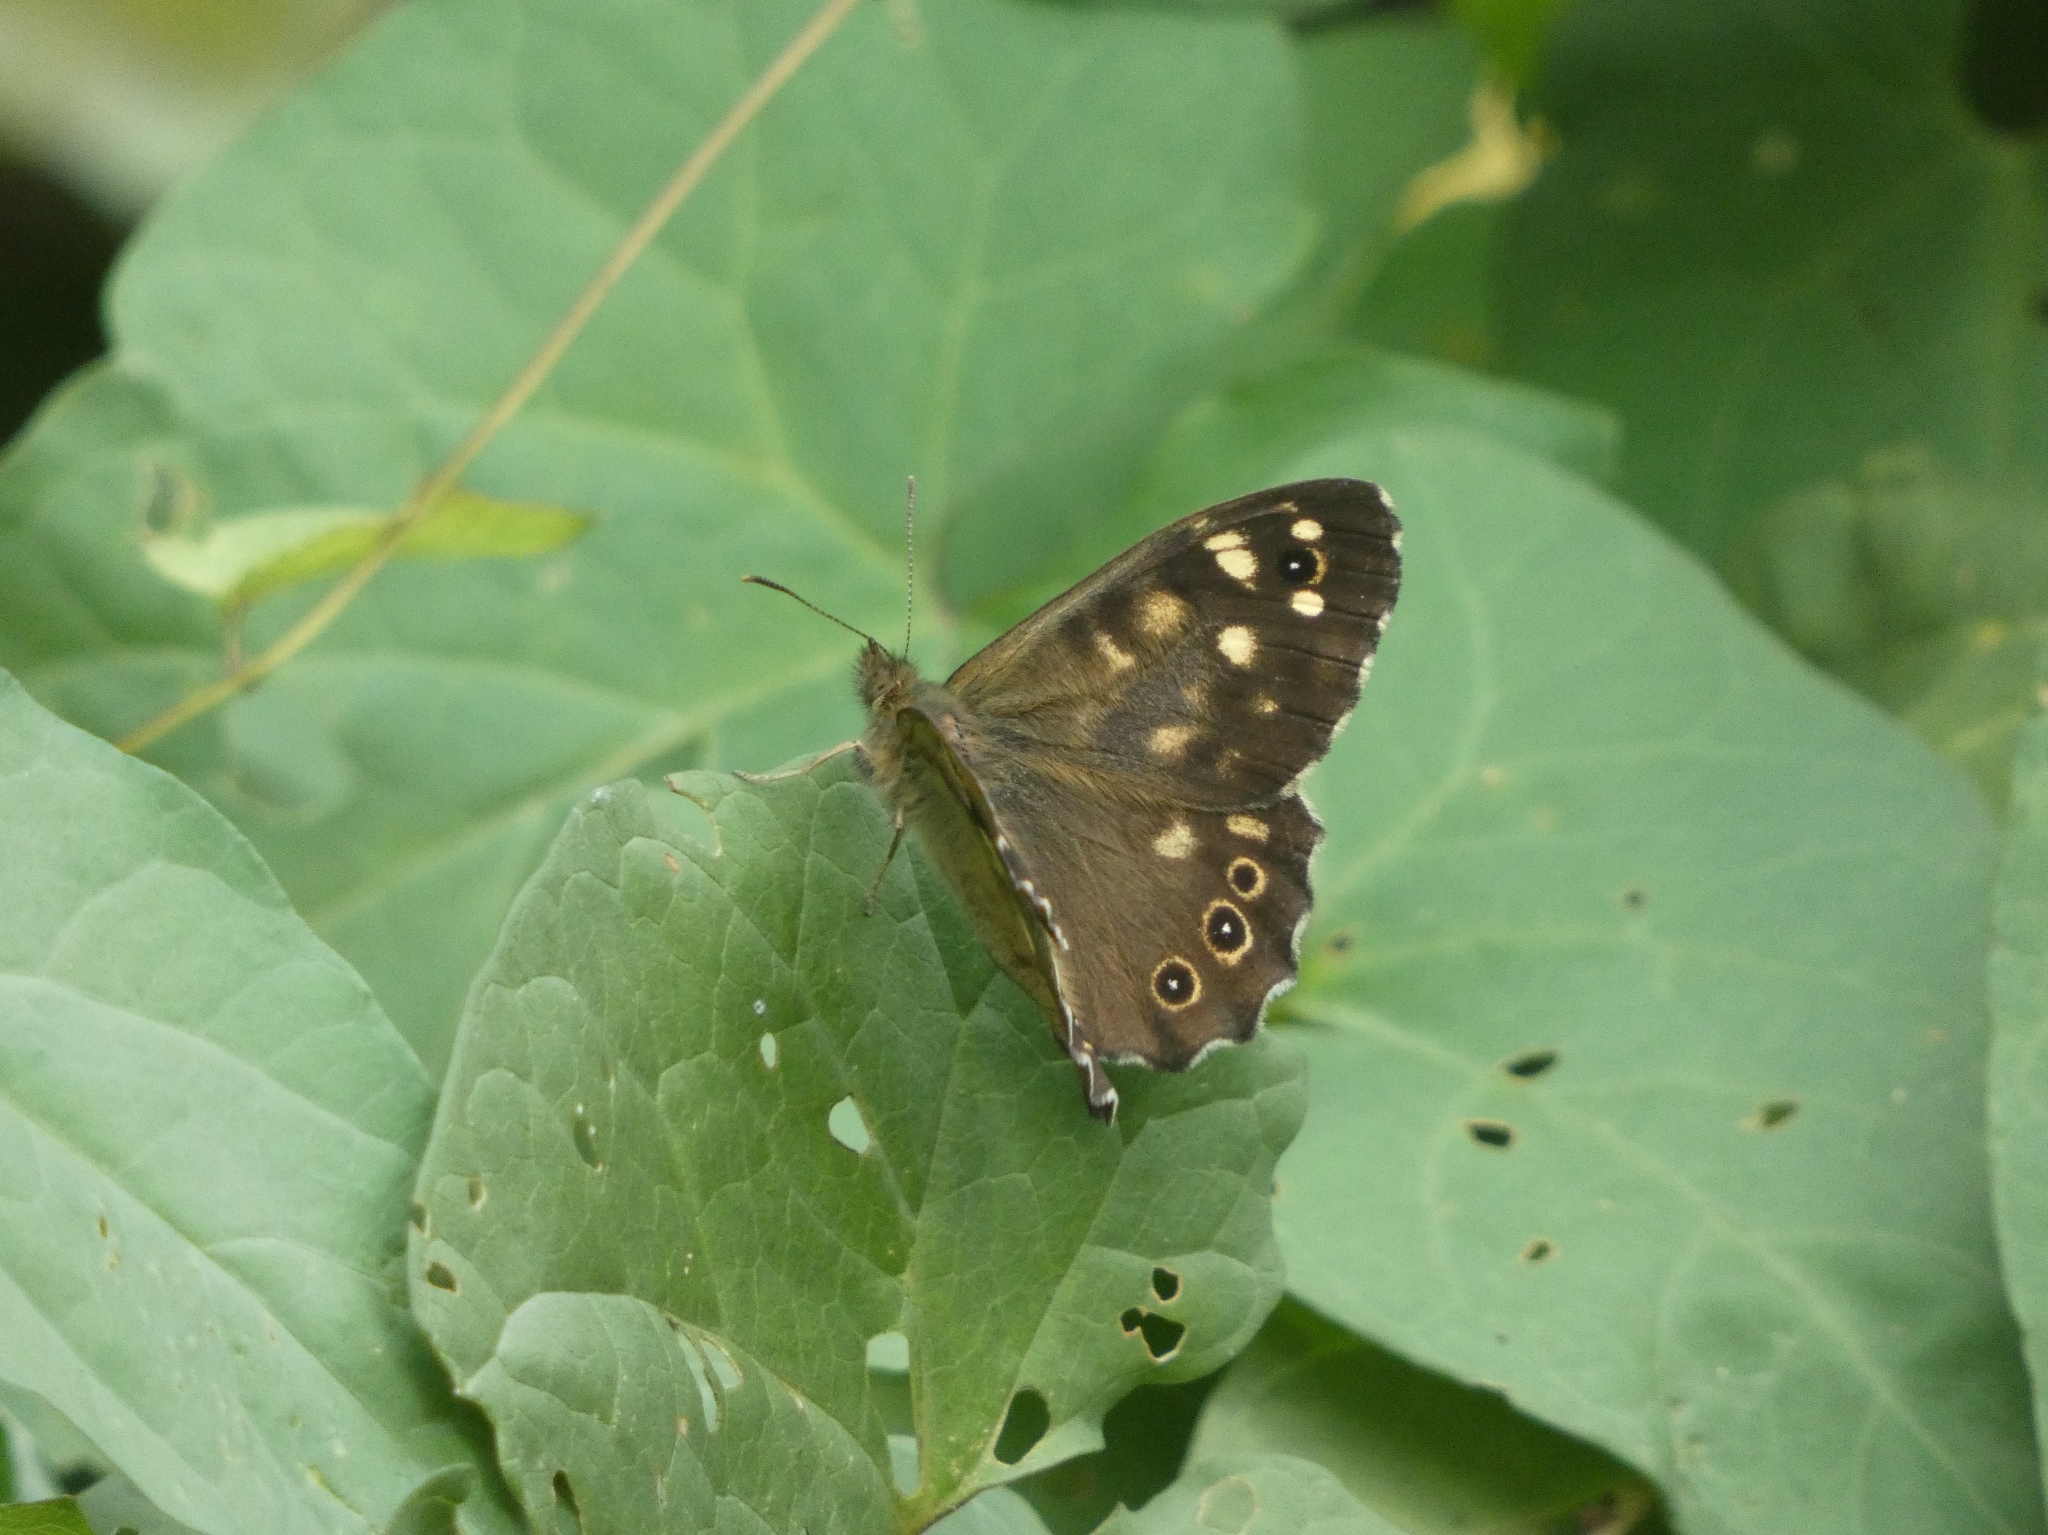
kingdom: Animalia
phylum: Arthropoda
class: Insecta
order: Lepidoptera
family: Nymphalidae
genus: Pararge
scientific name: Pararge aegeria
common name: Speckled wood
